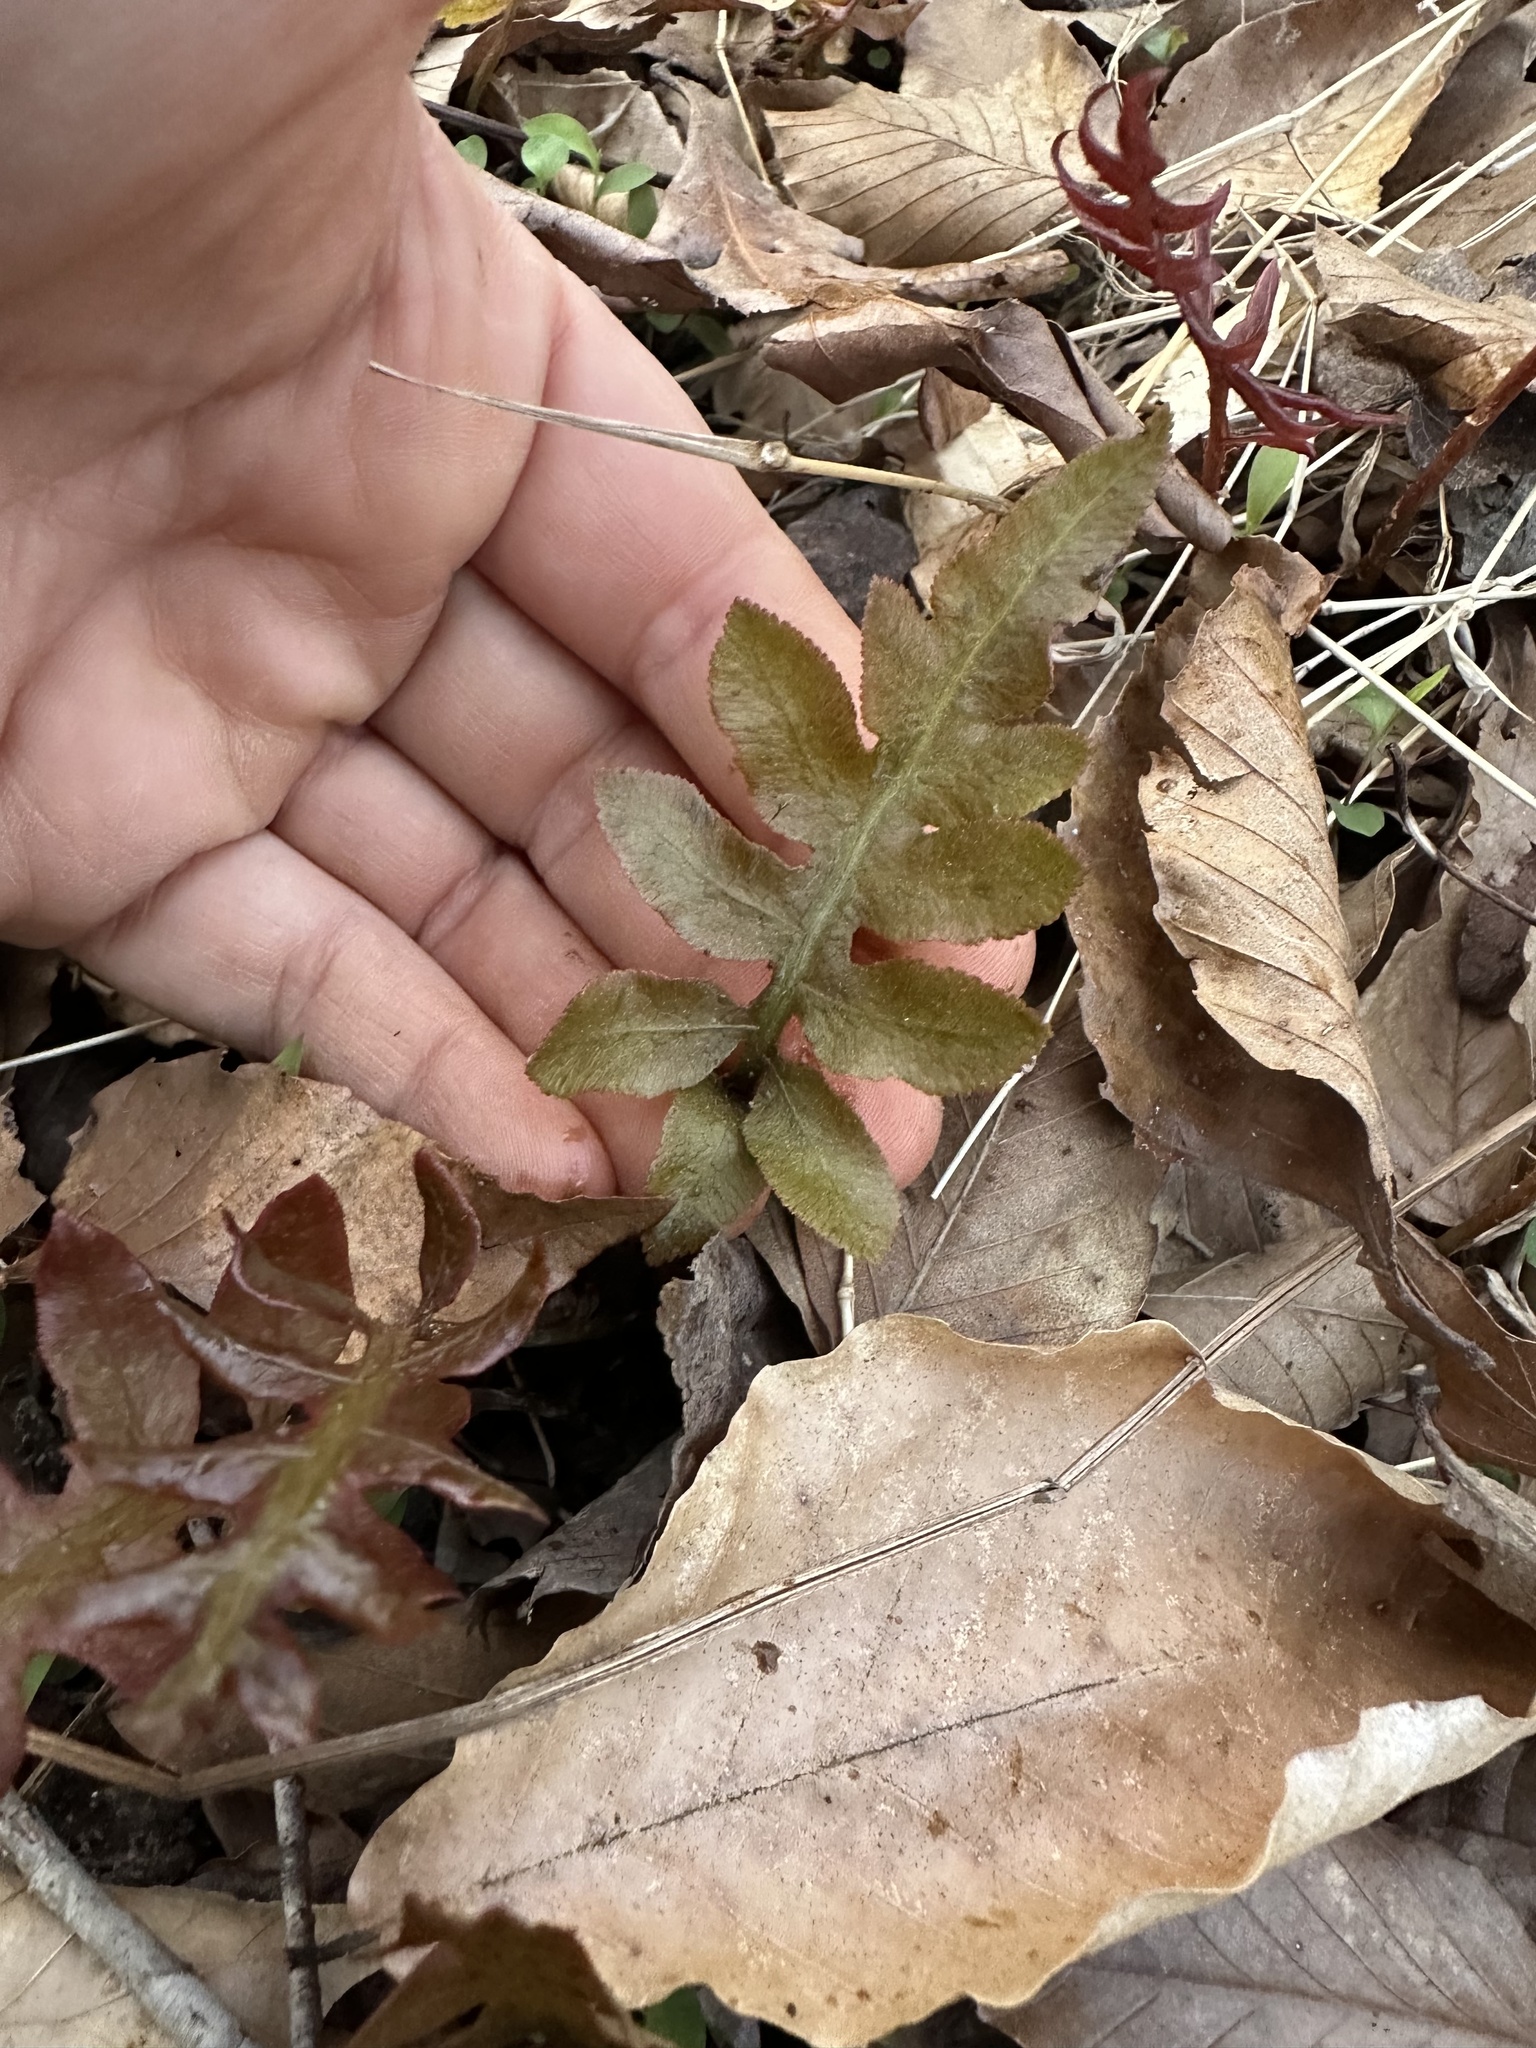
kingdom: Plantae
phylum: Tracheophyta
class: Polypodiopsida
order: Polypodiales
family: Blechnaceae
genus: Lorinseria
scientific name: Lorinseria areolata
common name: Dwarf chain fern
